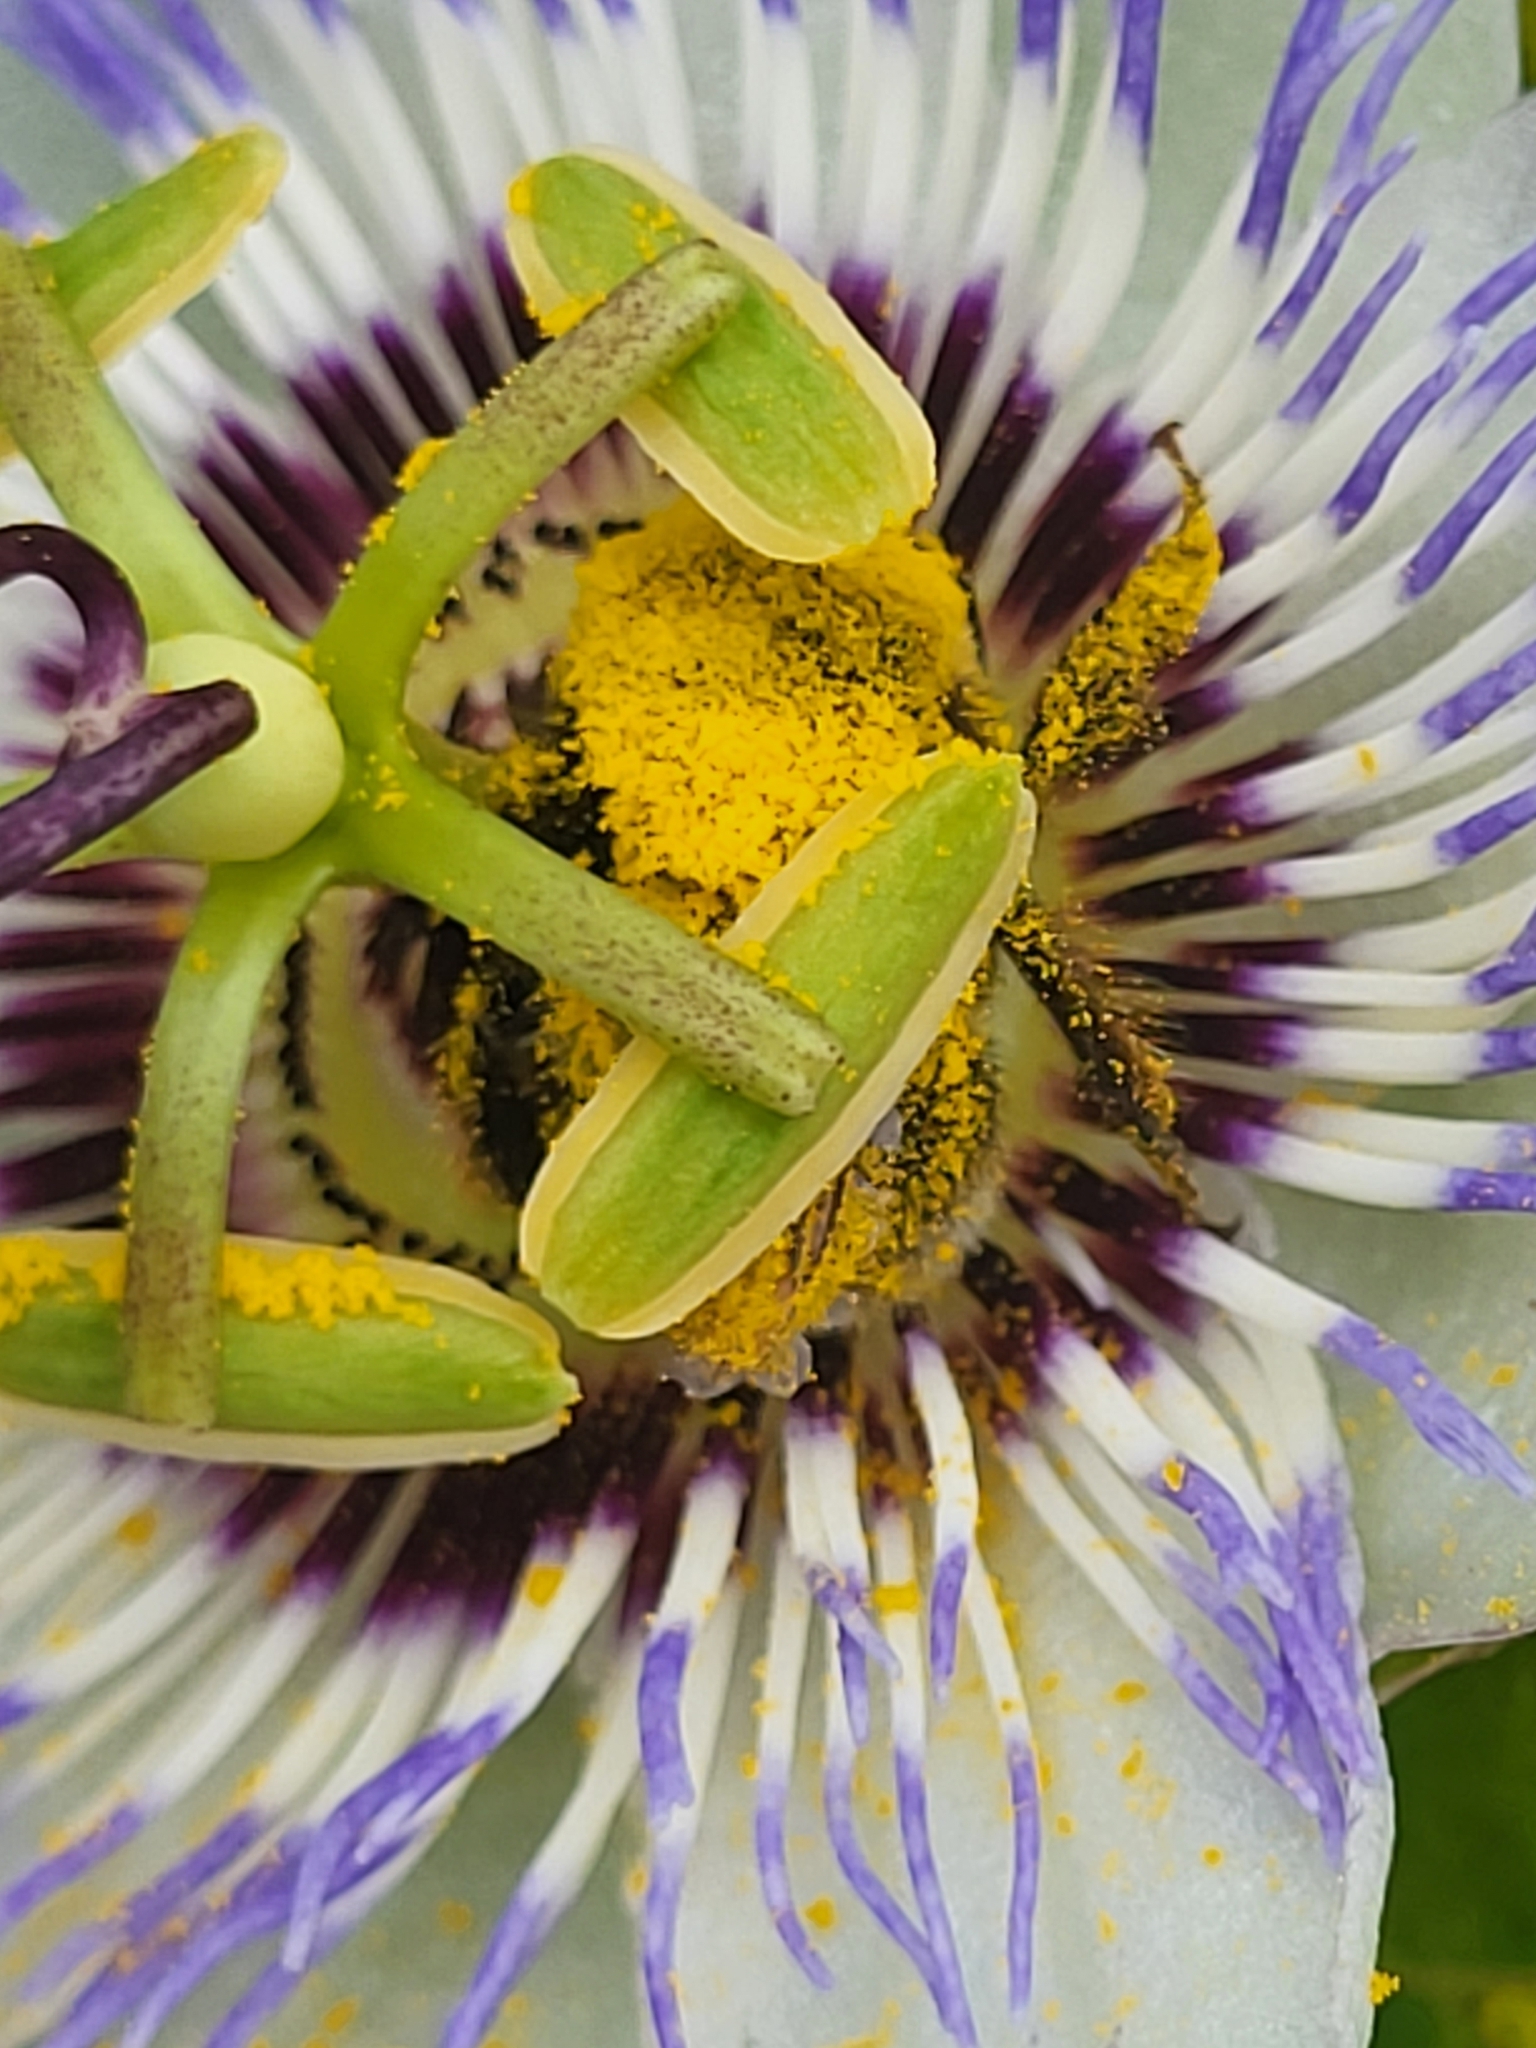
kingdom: Animalia
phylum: Arthropoda
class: Insecta
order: Hymenoptera
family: Apidae
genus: Bombus
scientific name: Bombus
